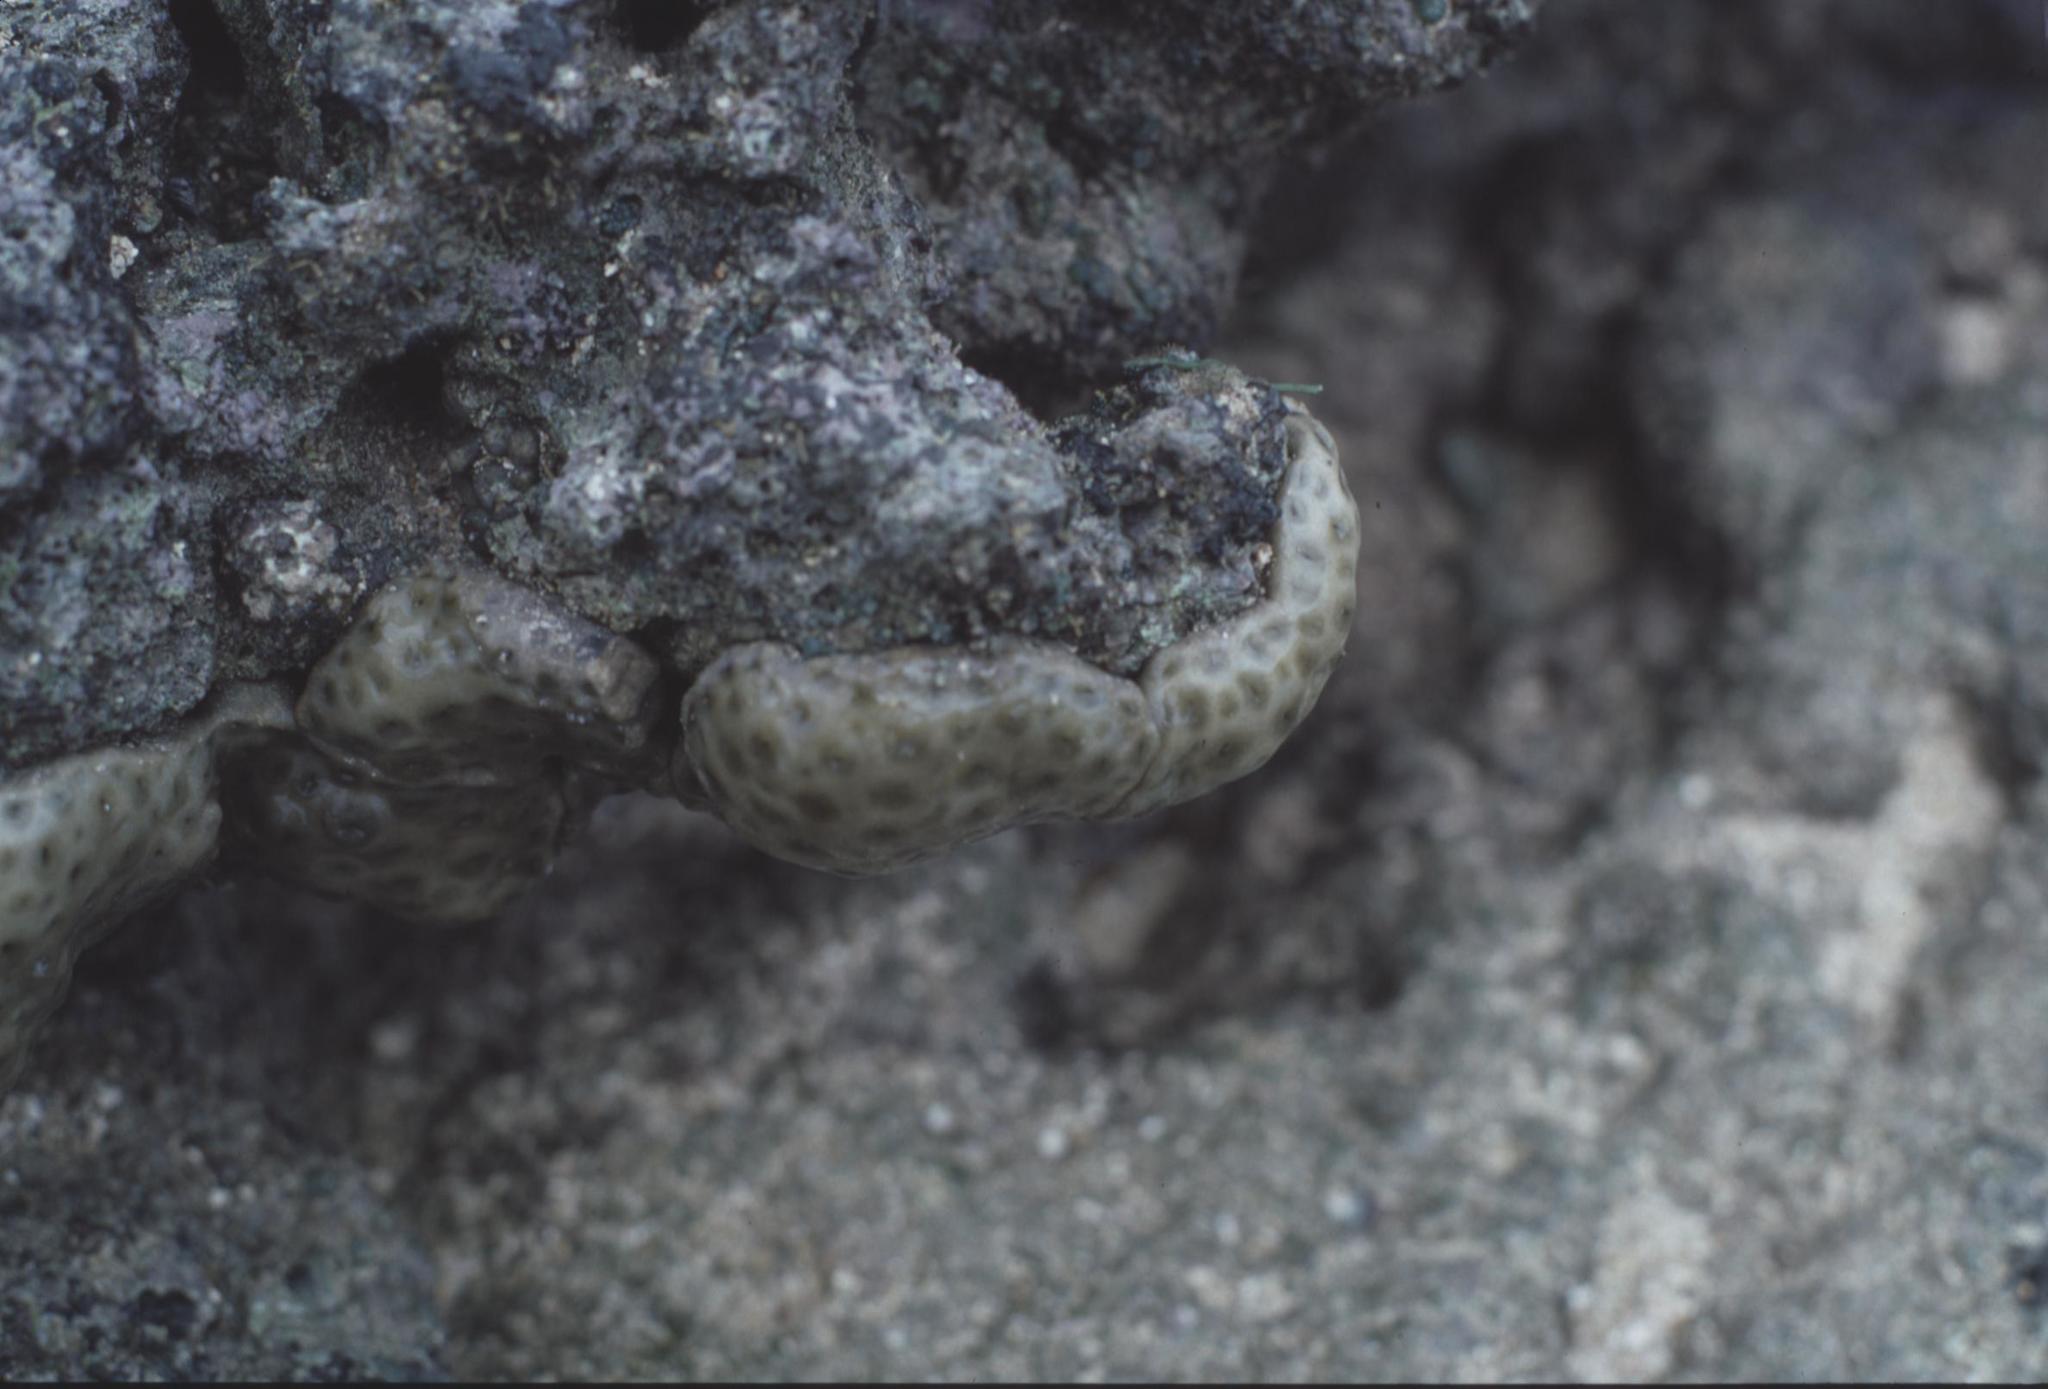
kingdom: Animalia
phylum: Cnidaria
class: Anthozoa
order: Zoantharia
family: Sphenopidae
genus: Palythoa
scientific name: Palythoa tuberculosa
